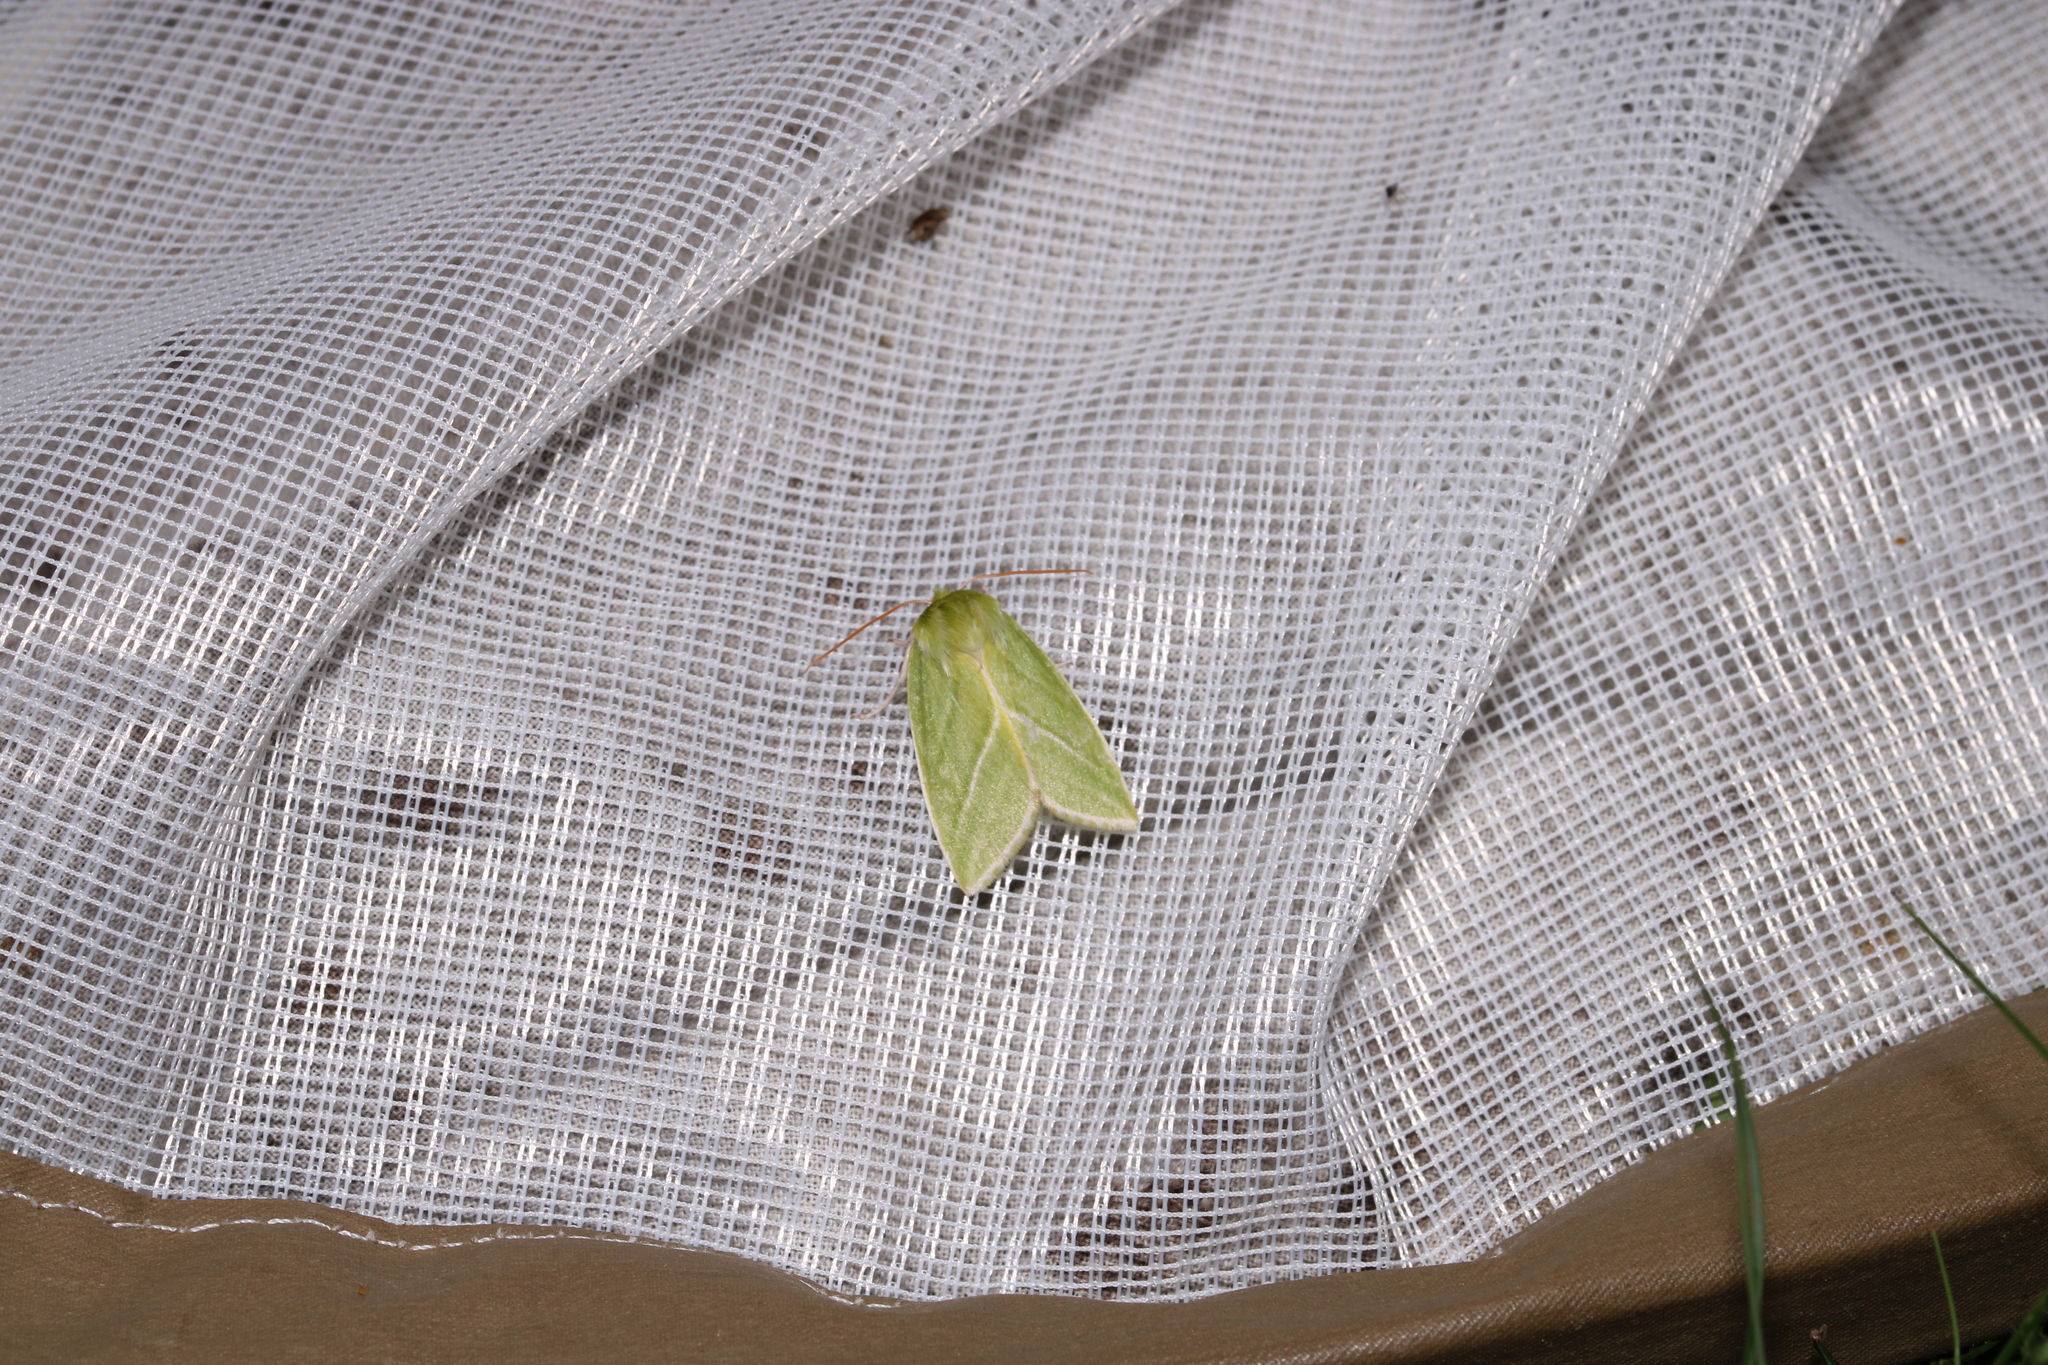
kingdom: Animalia
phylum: Arthropoda
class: Insecta
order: Lepidoptera
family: Nolidae
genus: Pseudoips
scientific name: Pseudoips prasinana
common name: Green silver-lines
